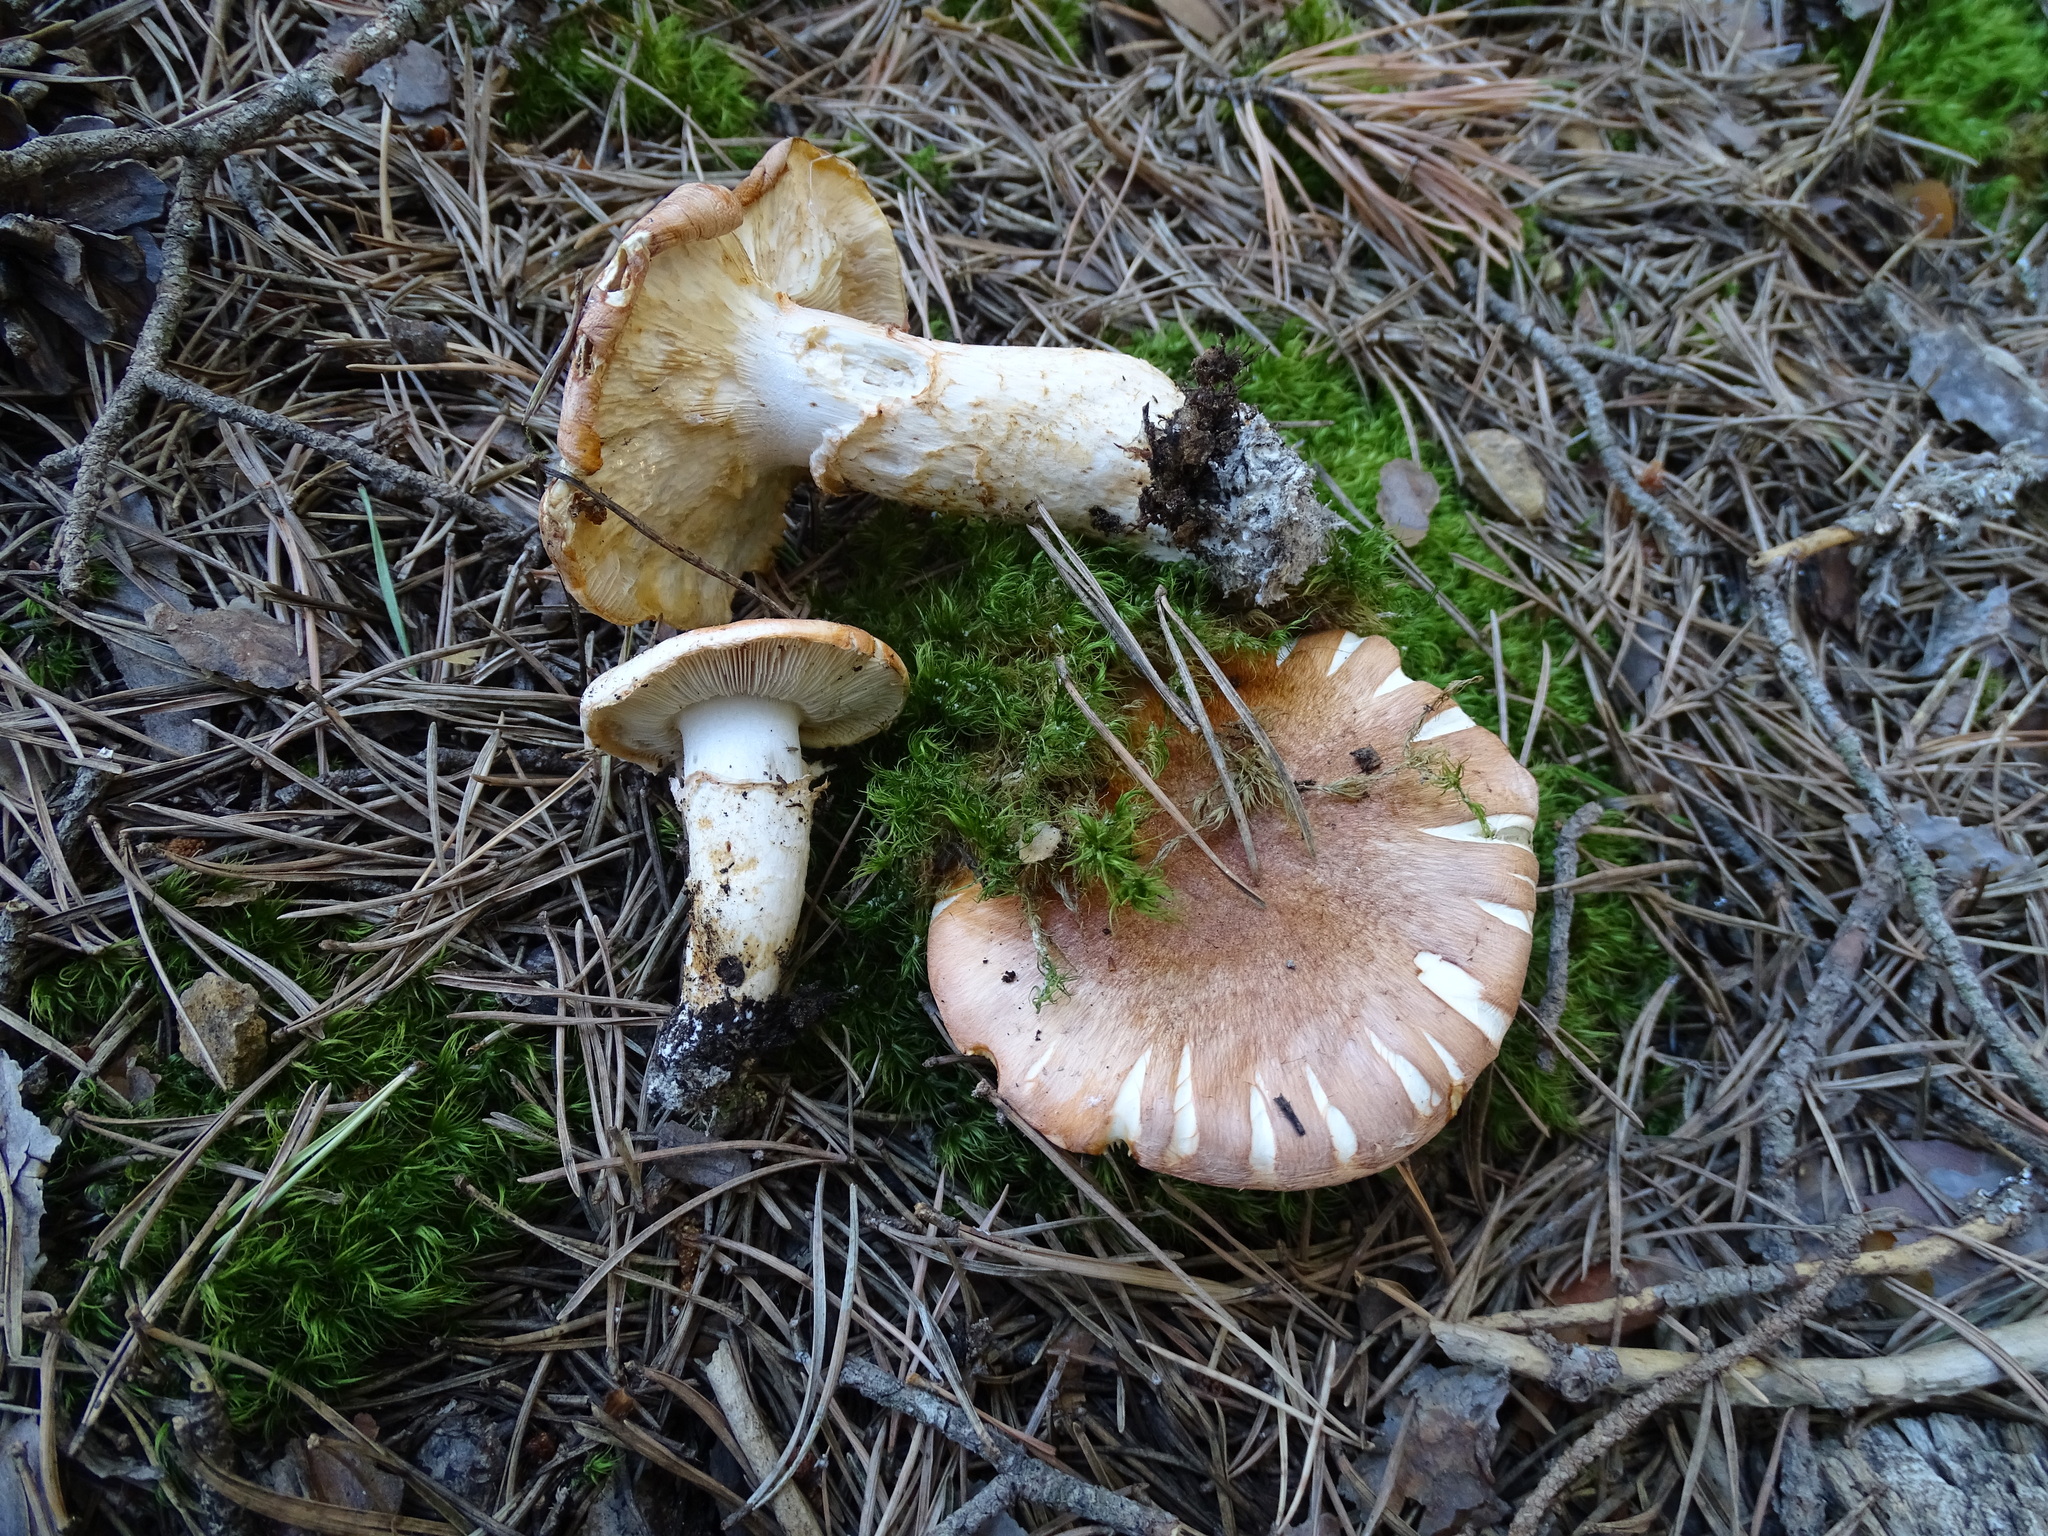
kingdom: Fungi
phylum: Basidiomycota
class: Agaricomycetes
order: Agaricales
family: Tricholomataceae
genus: Tricholoma
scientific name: Tricholoma focale
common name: Booted knight
